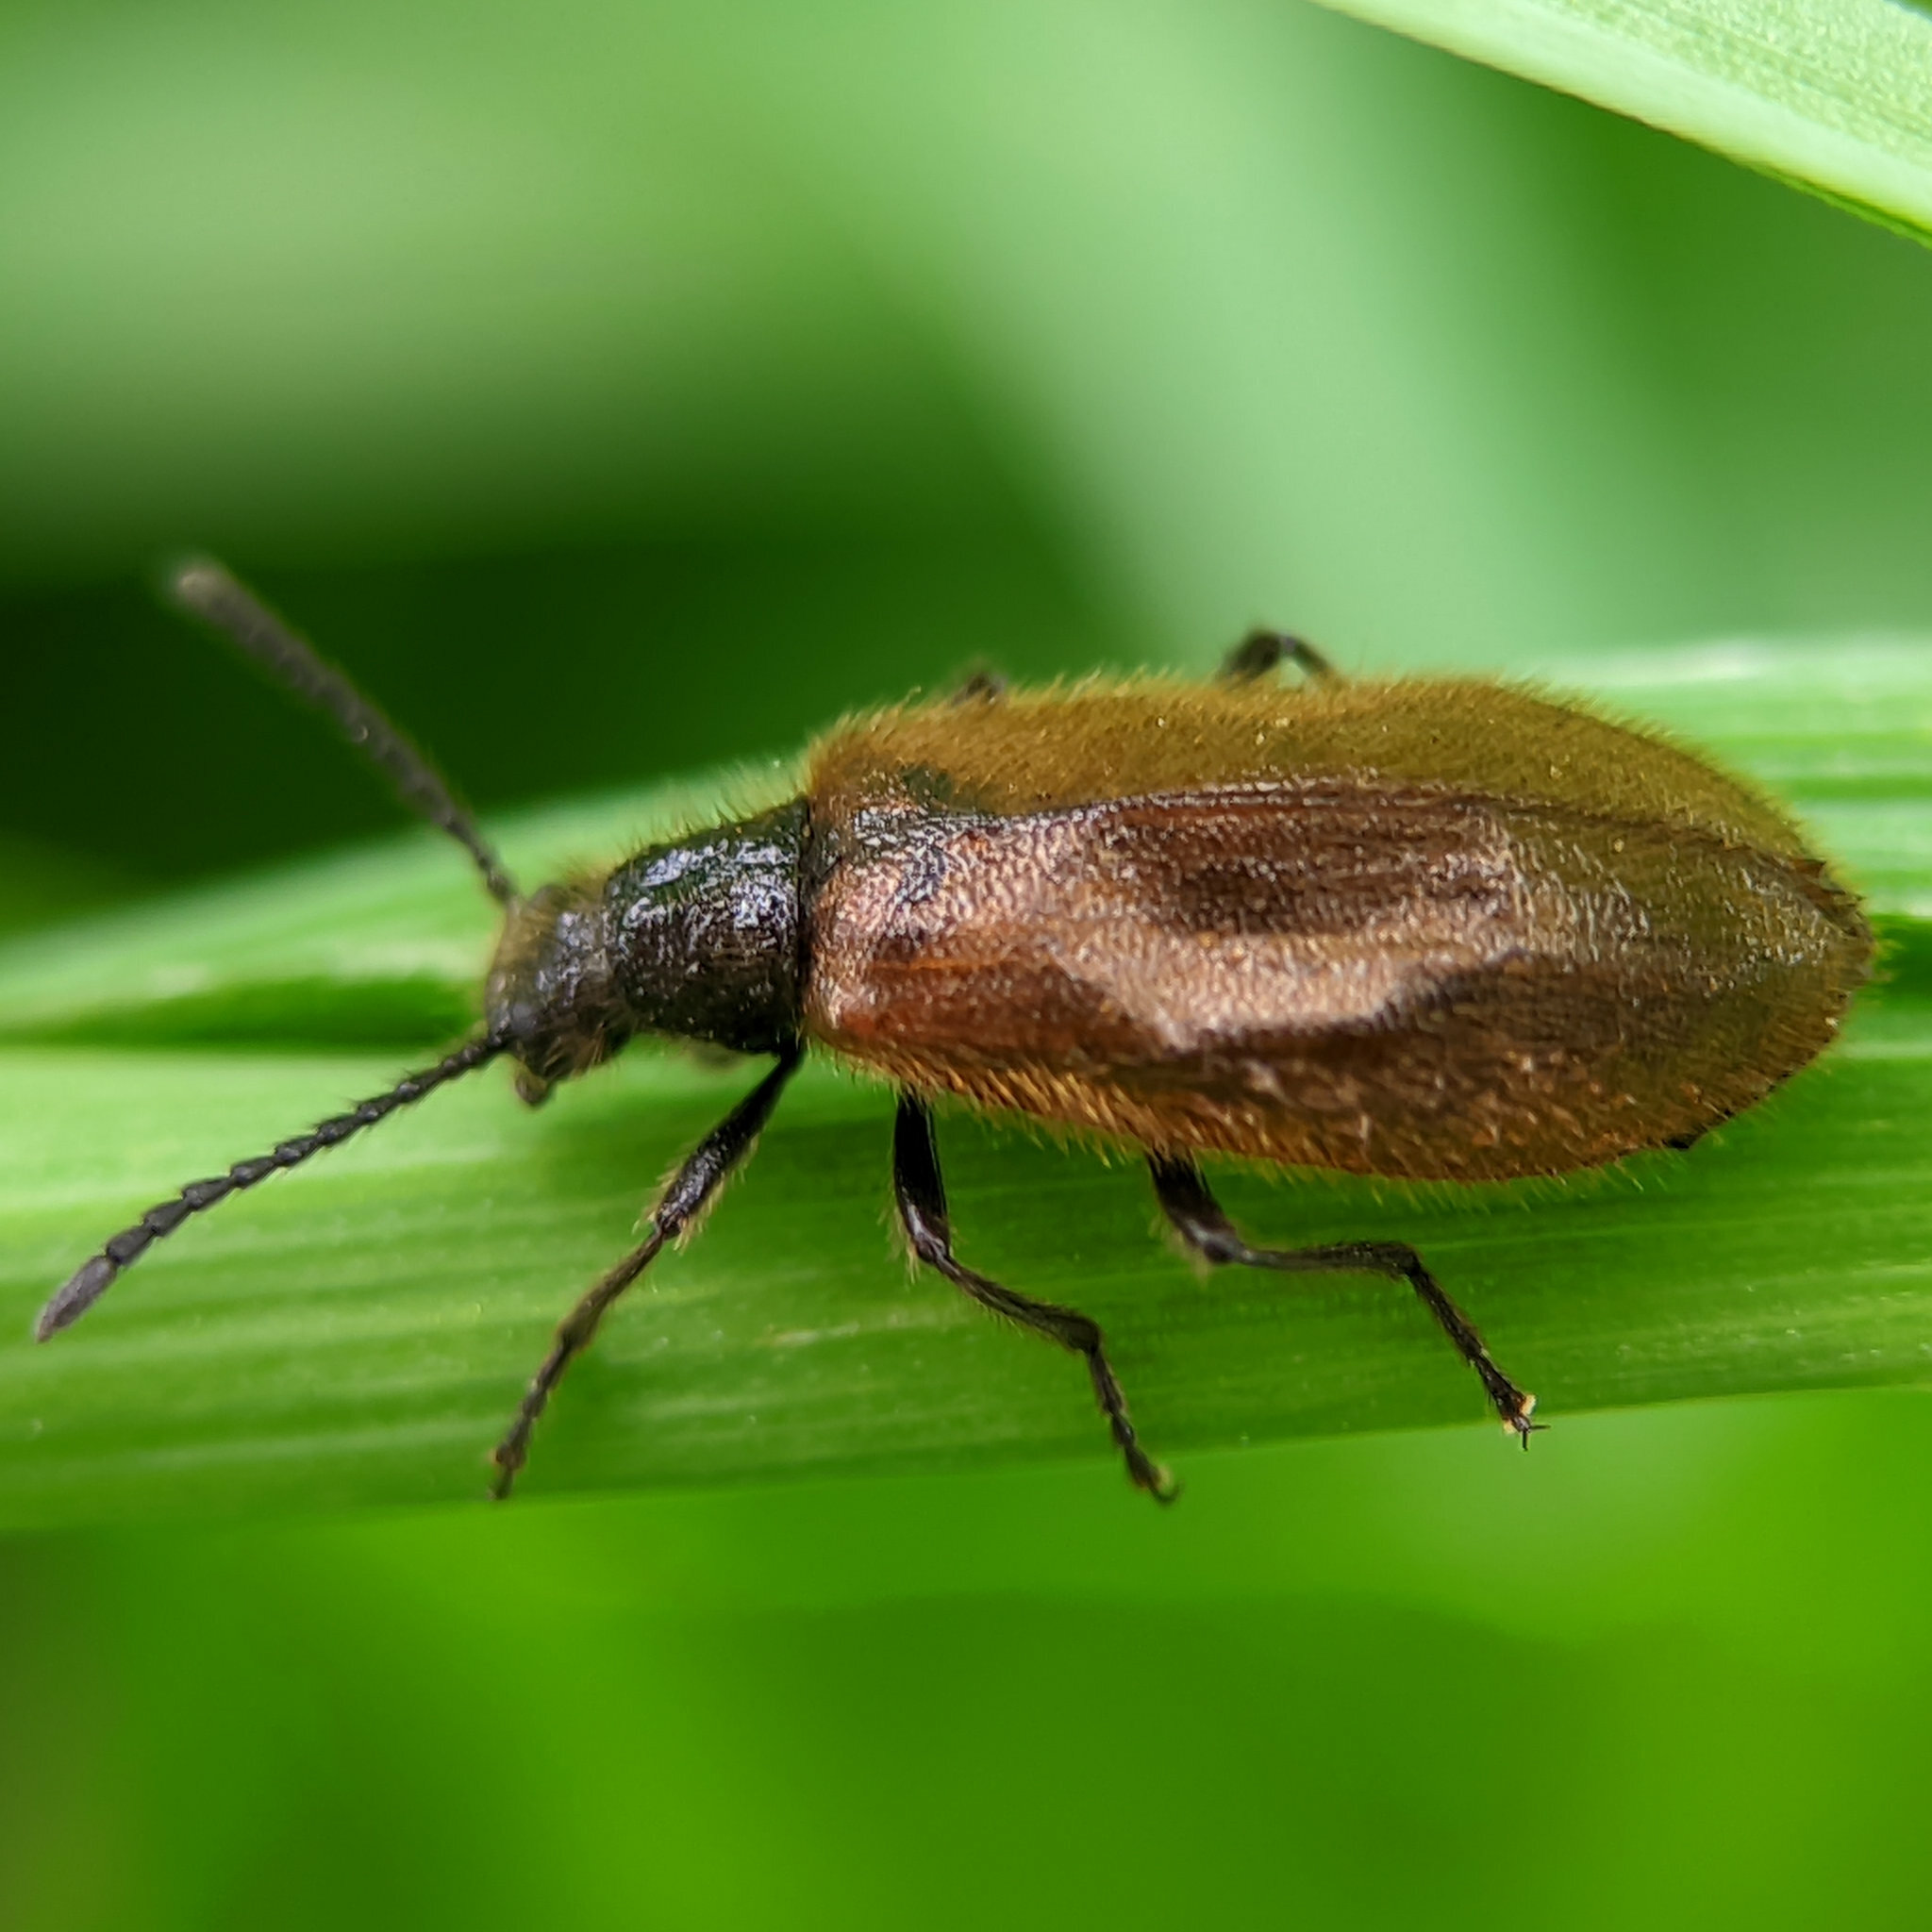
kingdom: Animalia
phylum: Arthropoda
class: Insecta
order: Coleoptera
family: Tenebrionidae
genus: Lagria
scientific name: Lagria hirta
